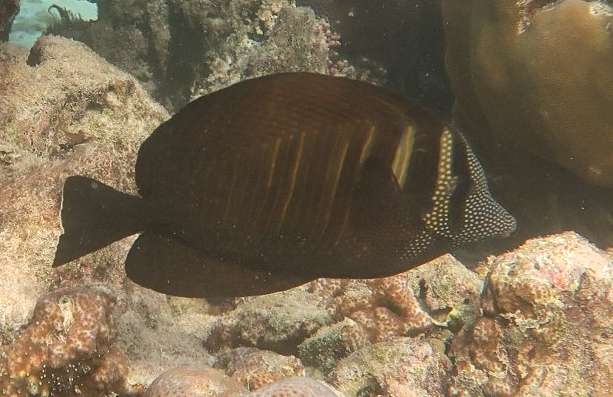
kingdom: Animalia
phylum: Chordata
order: Perciformes
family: Acanthuridae
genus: Zebrasoma
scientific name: Zebrasoma desjardinii
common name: Desjardin's sailfin tang
